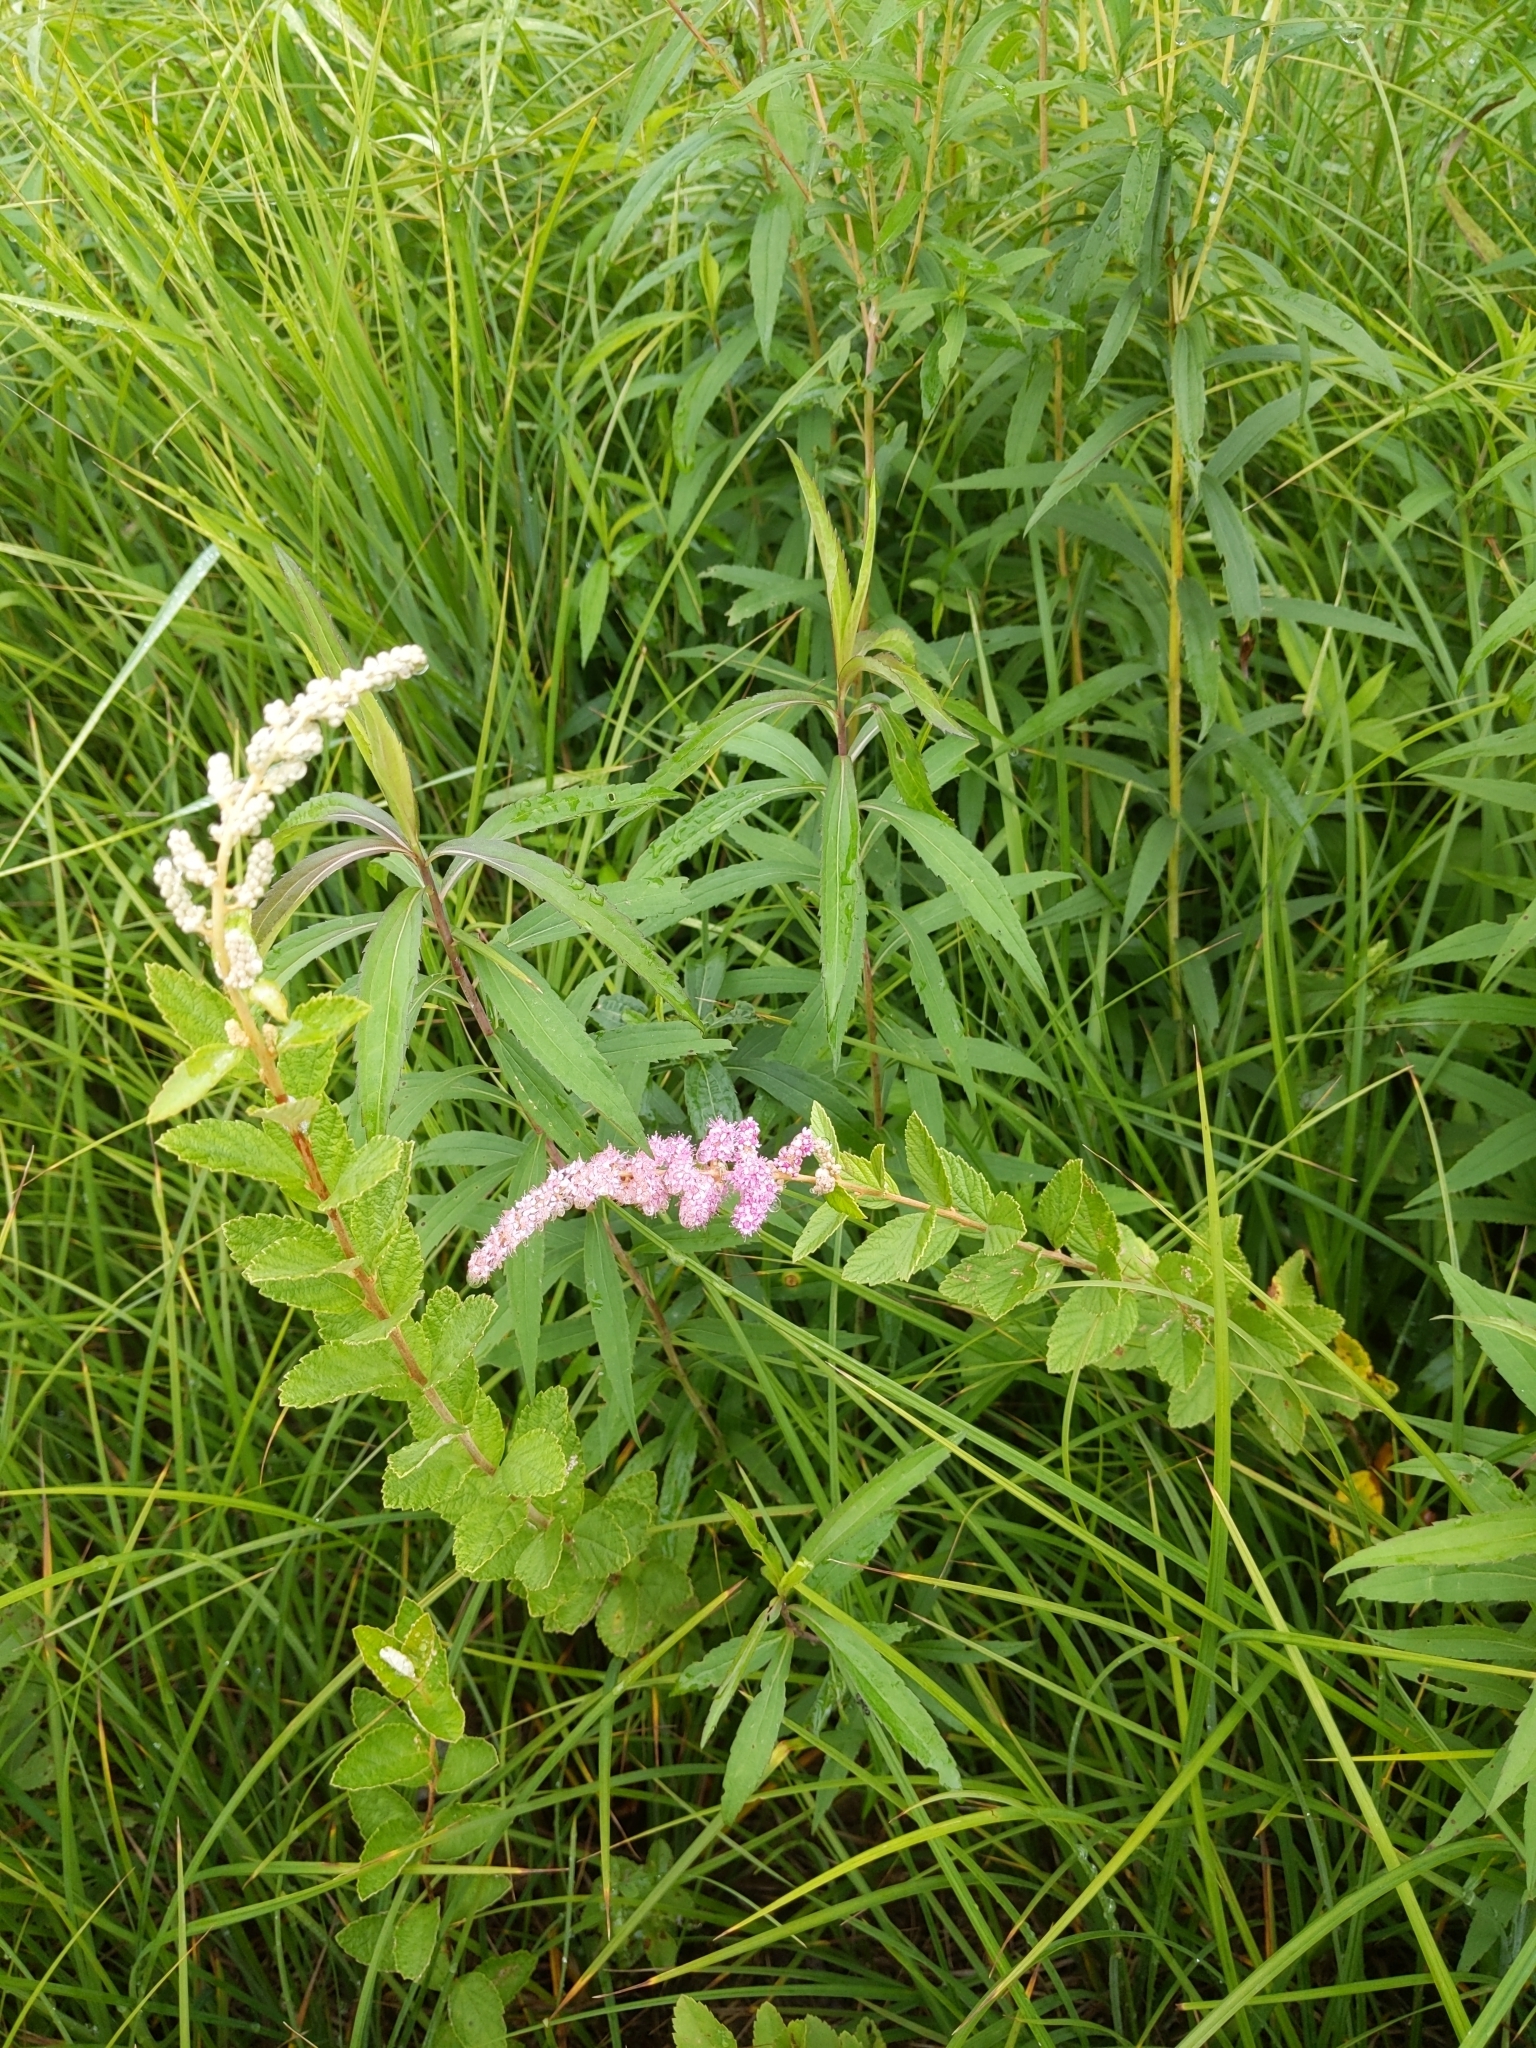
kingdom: Plantae
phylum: Tracheophyta
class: Magnoliopsida
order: Rosales
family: Rosaceae
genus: Spiraea
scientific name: Spiraea tomentosa
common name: Hardhack
